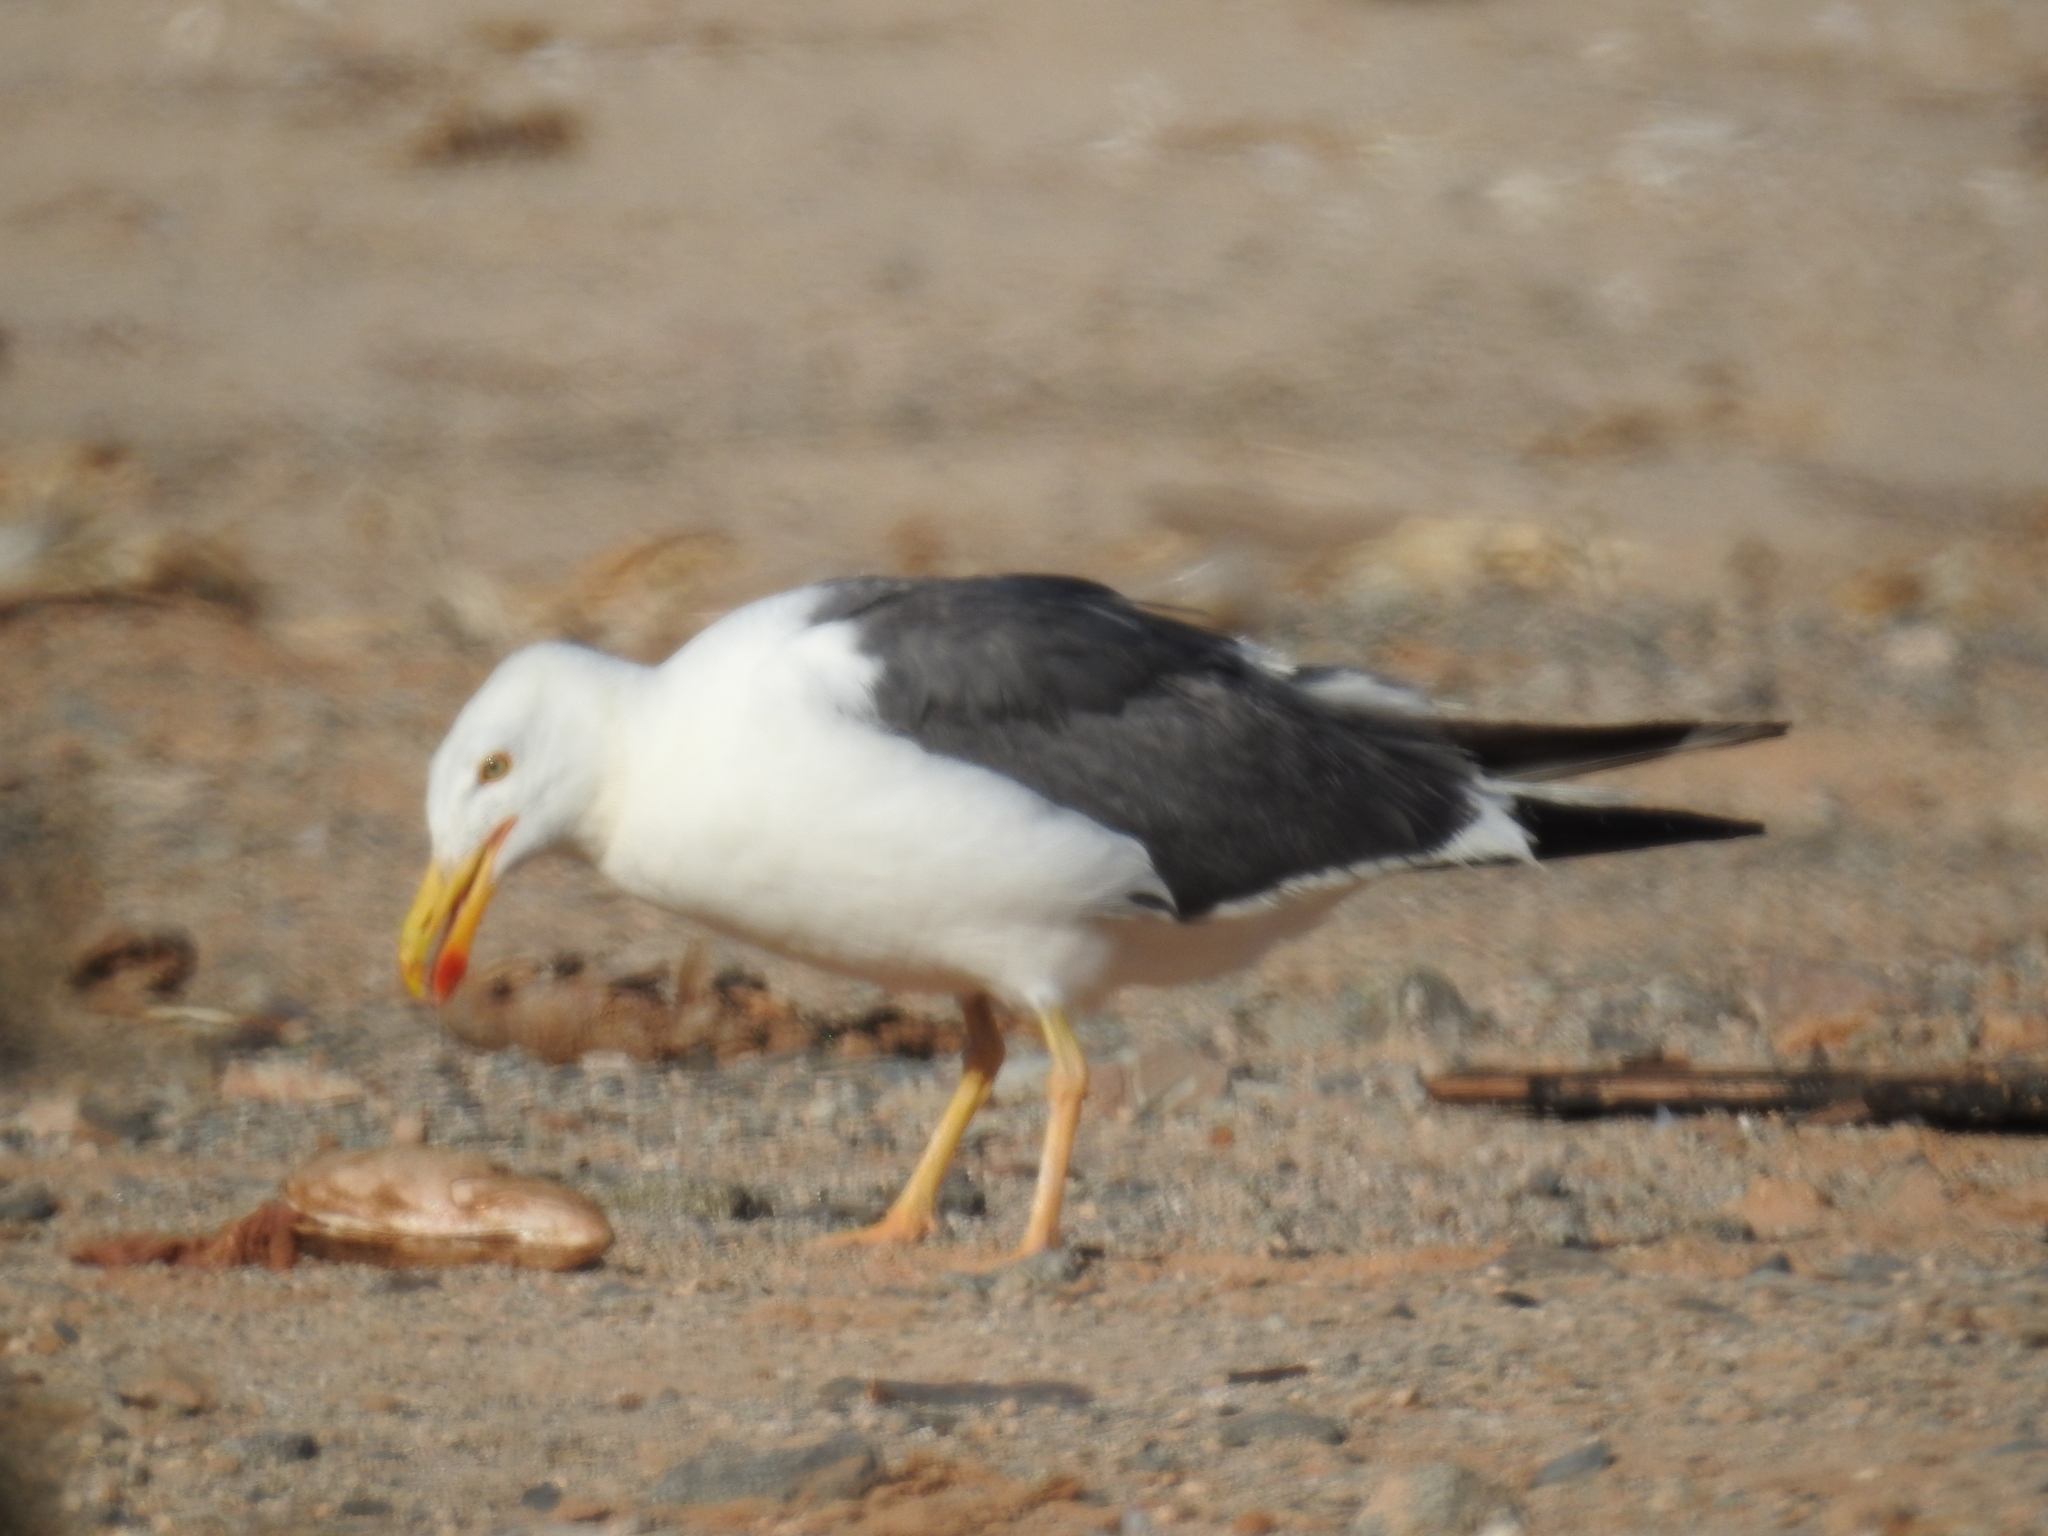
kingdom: Animalia
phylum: Chordata
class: Aves
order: Charadriiformes
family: Laridae
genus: Larus
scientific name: Larus livens
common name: Yellow-footed gull
